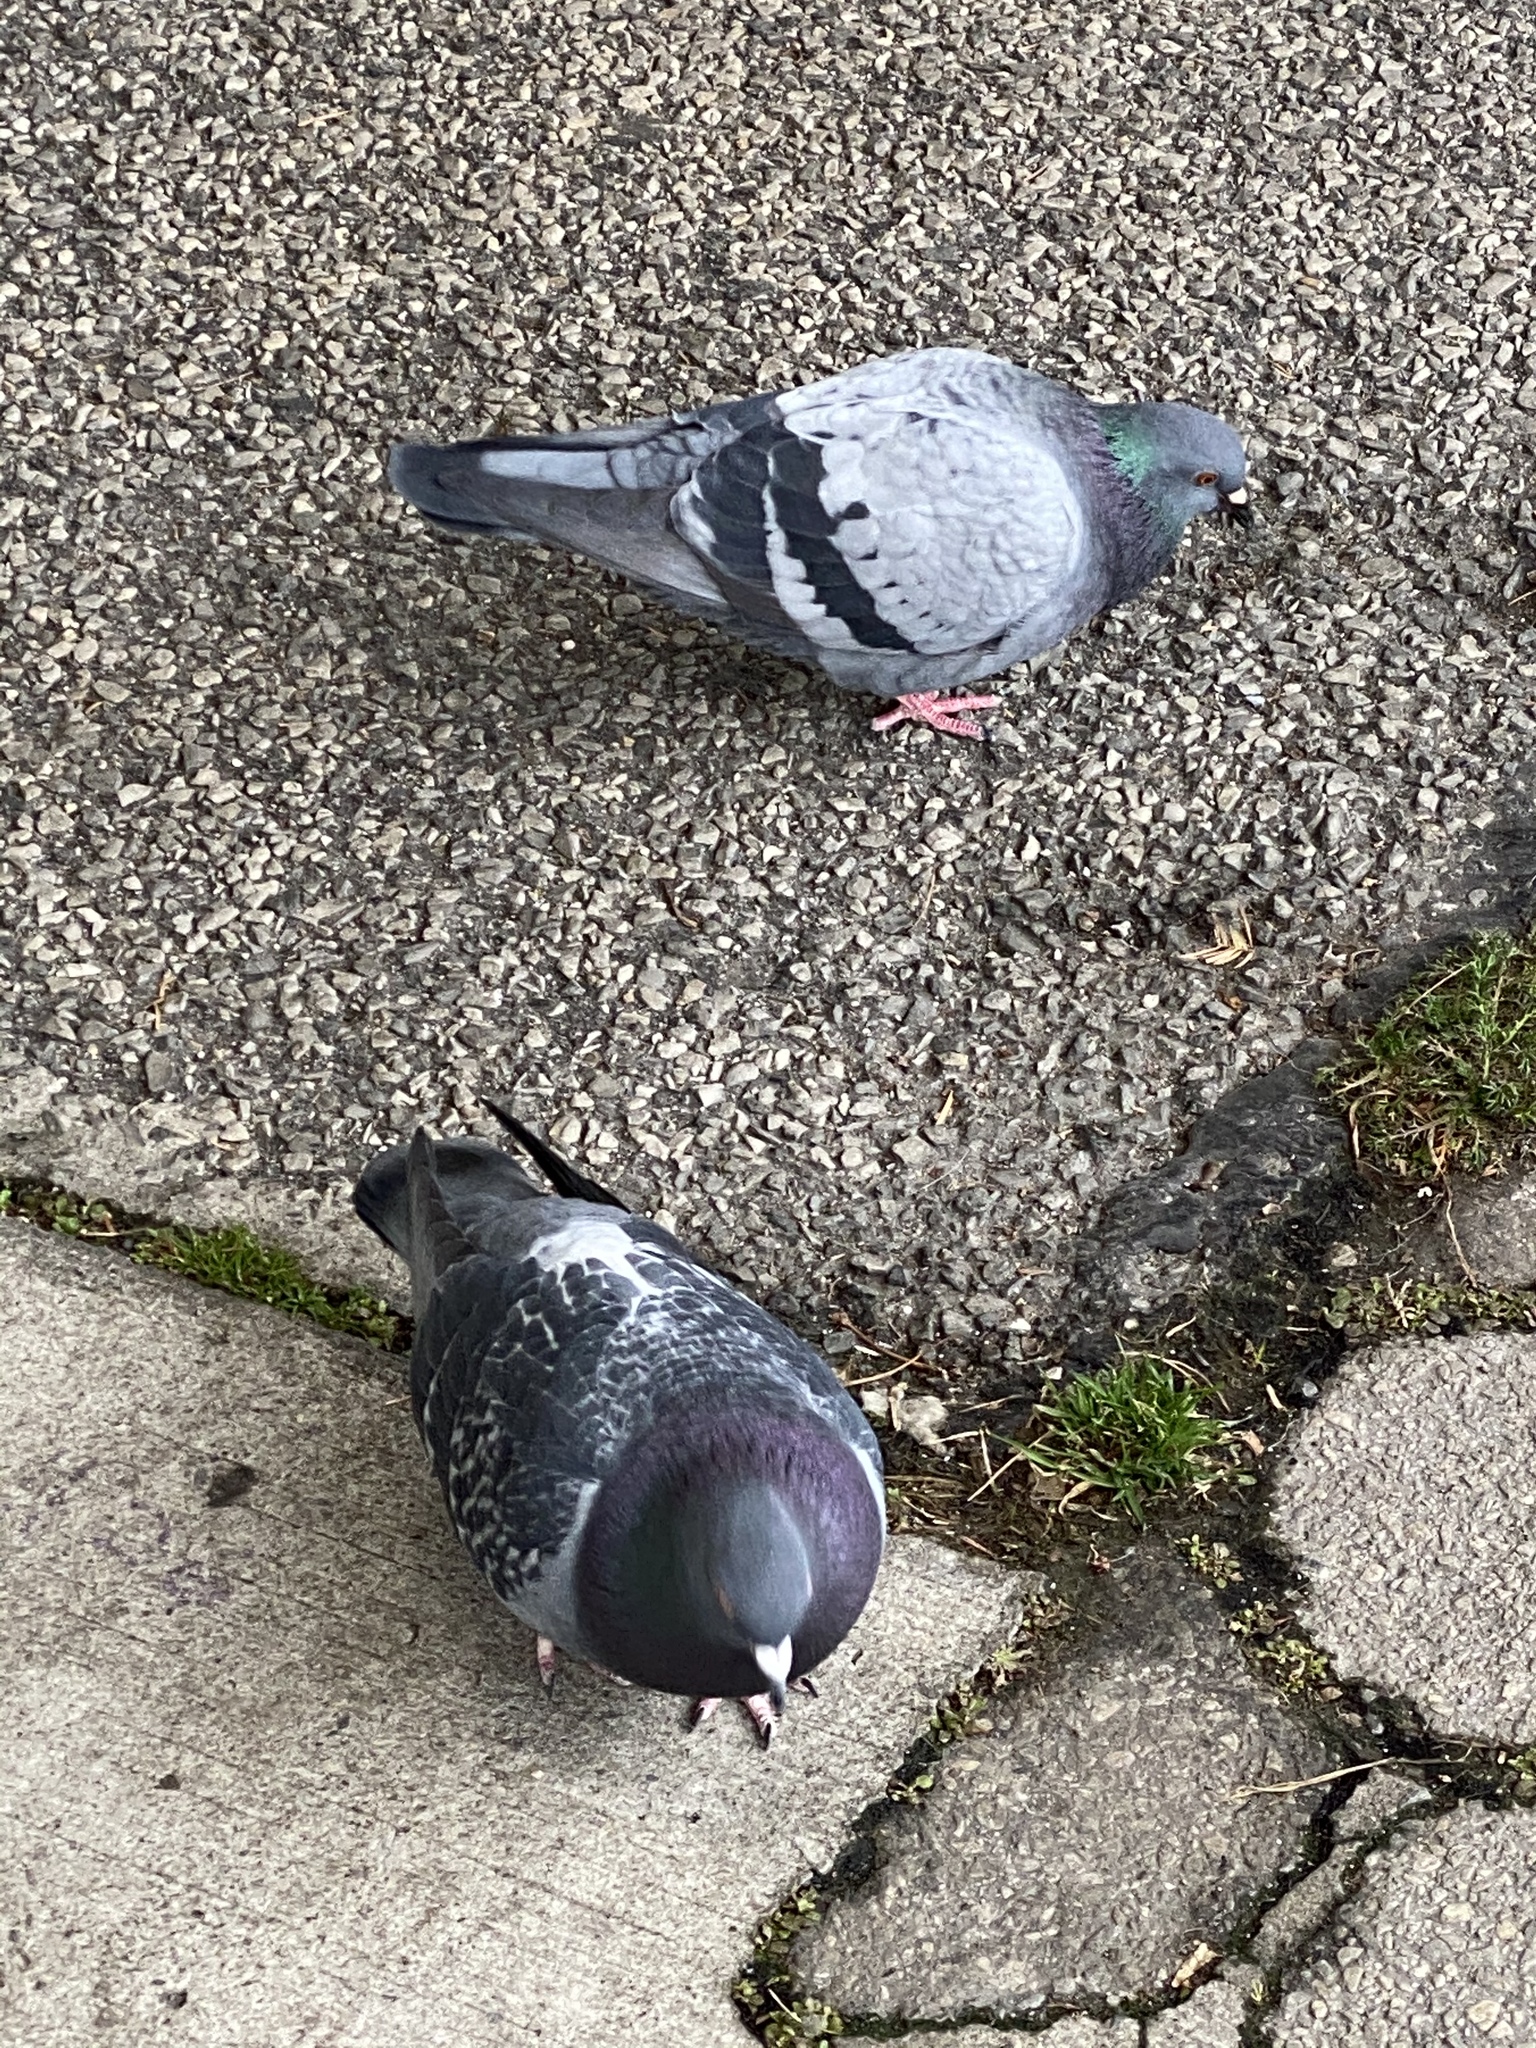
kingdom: Animalia
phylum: Chordata
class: Aves
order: Columbiformes
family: Columbidae
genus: Columba
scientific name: Columba livia
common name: Rock pigeon
